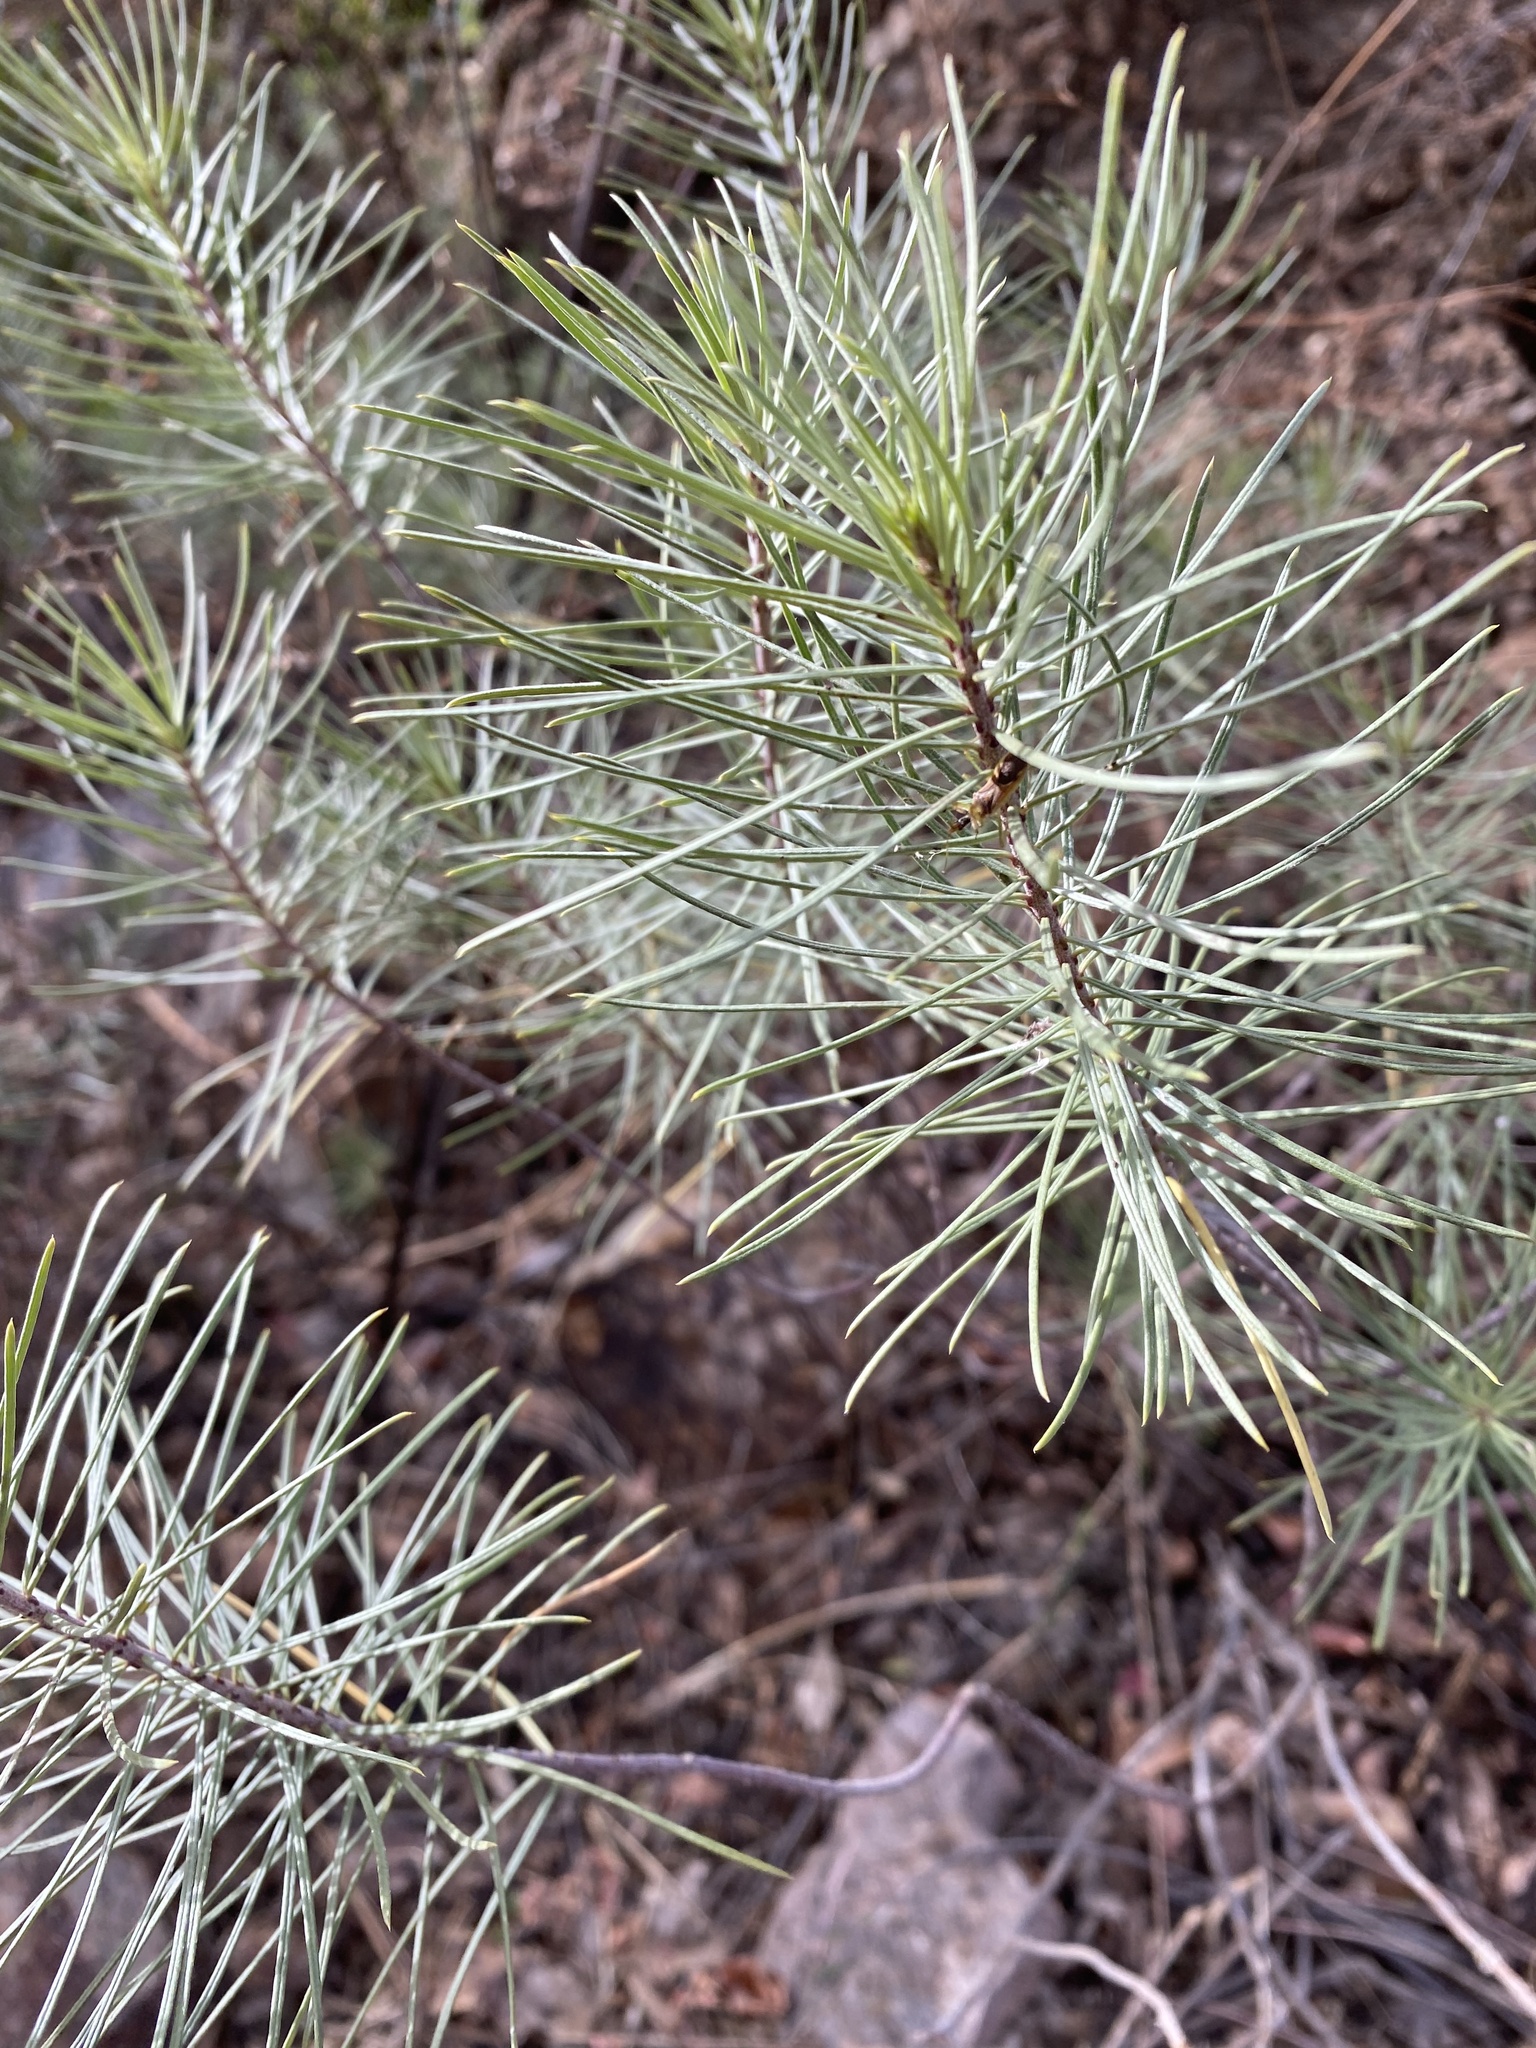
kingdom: Plantae
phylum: Tracheophyta
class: Magnoliopsida
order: Gentianales
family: Apocynaceae
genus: Asclepias
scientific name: Asclepias linaria
